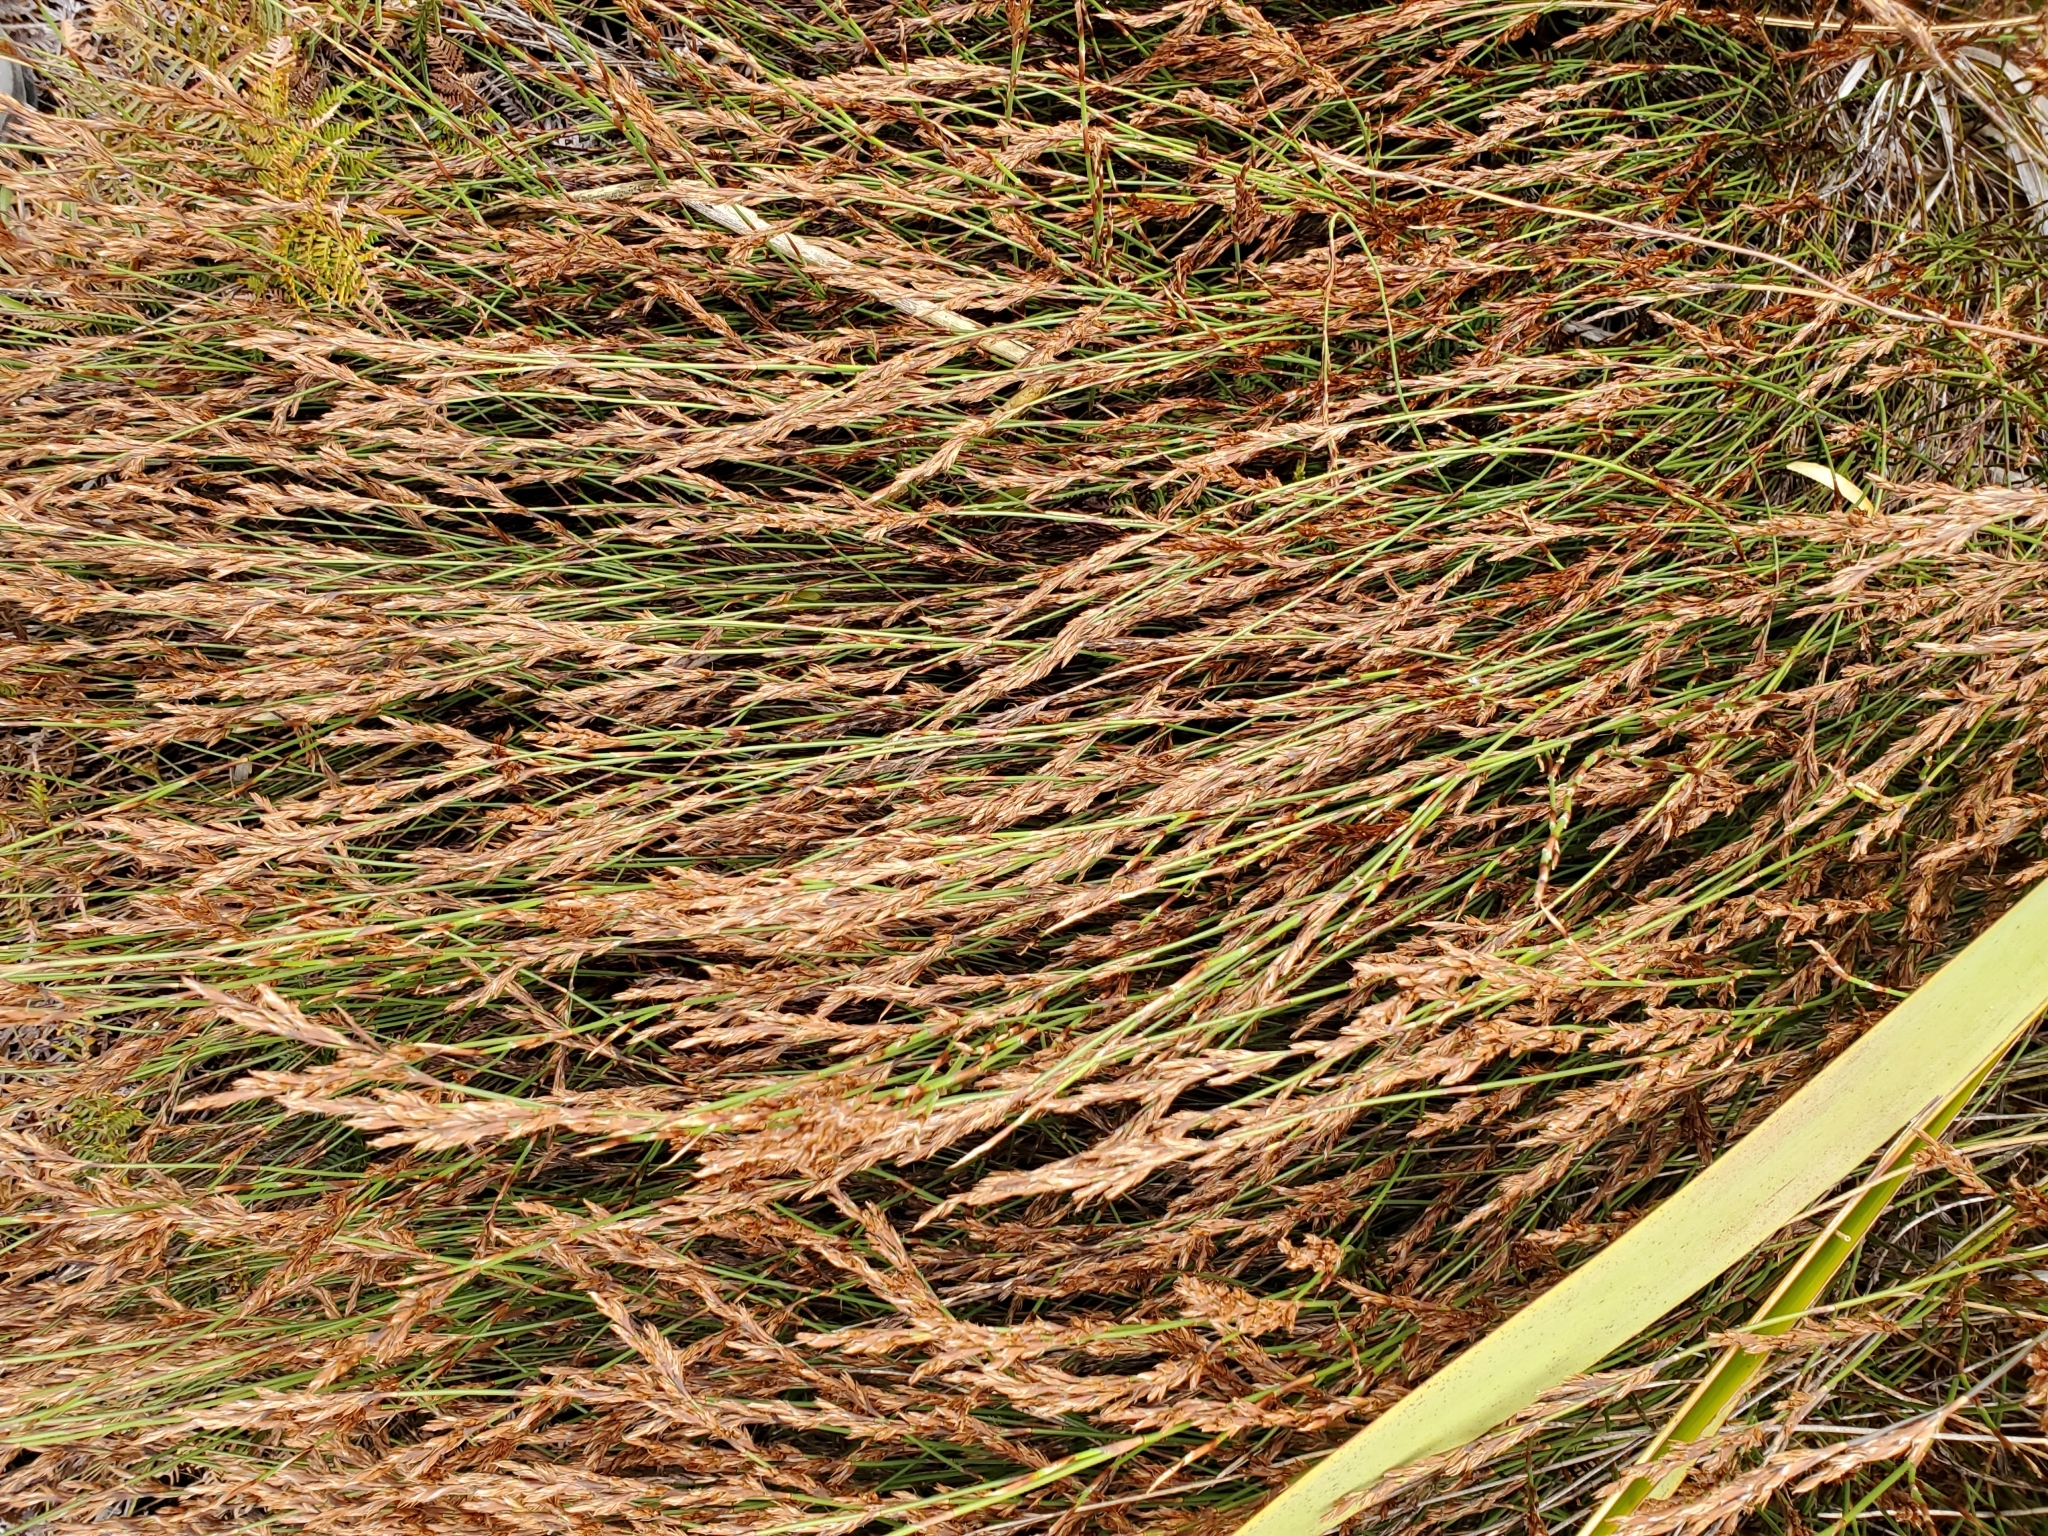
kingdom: Plantae
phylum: Tracheophyta
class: Liliopsida
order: Poales
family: Restionaceae
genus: Sporadanthus
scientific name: Sporadanthus traversii
